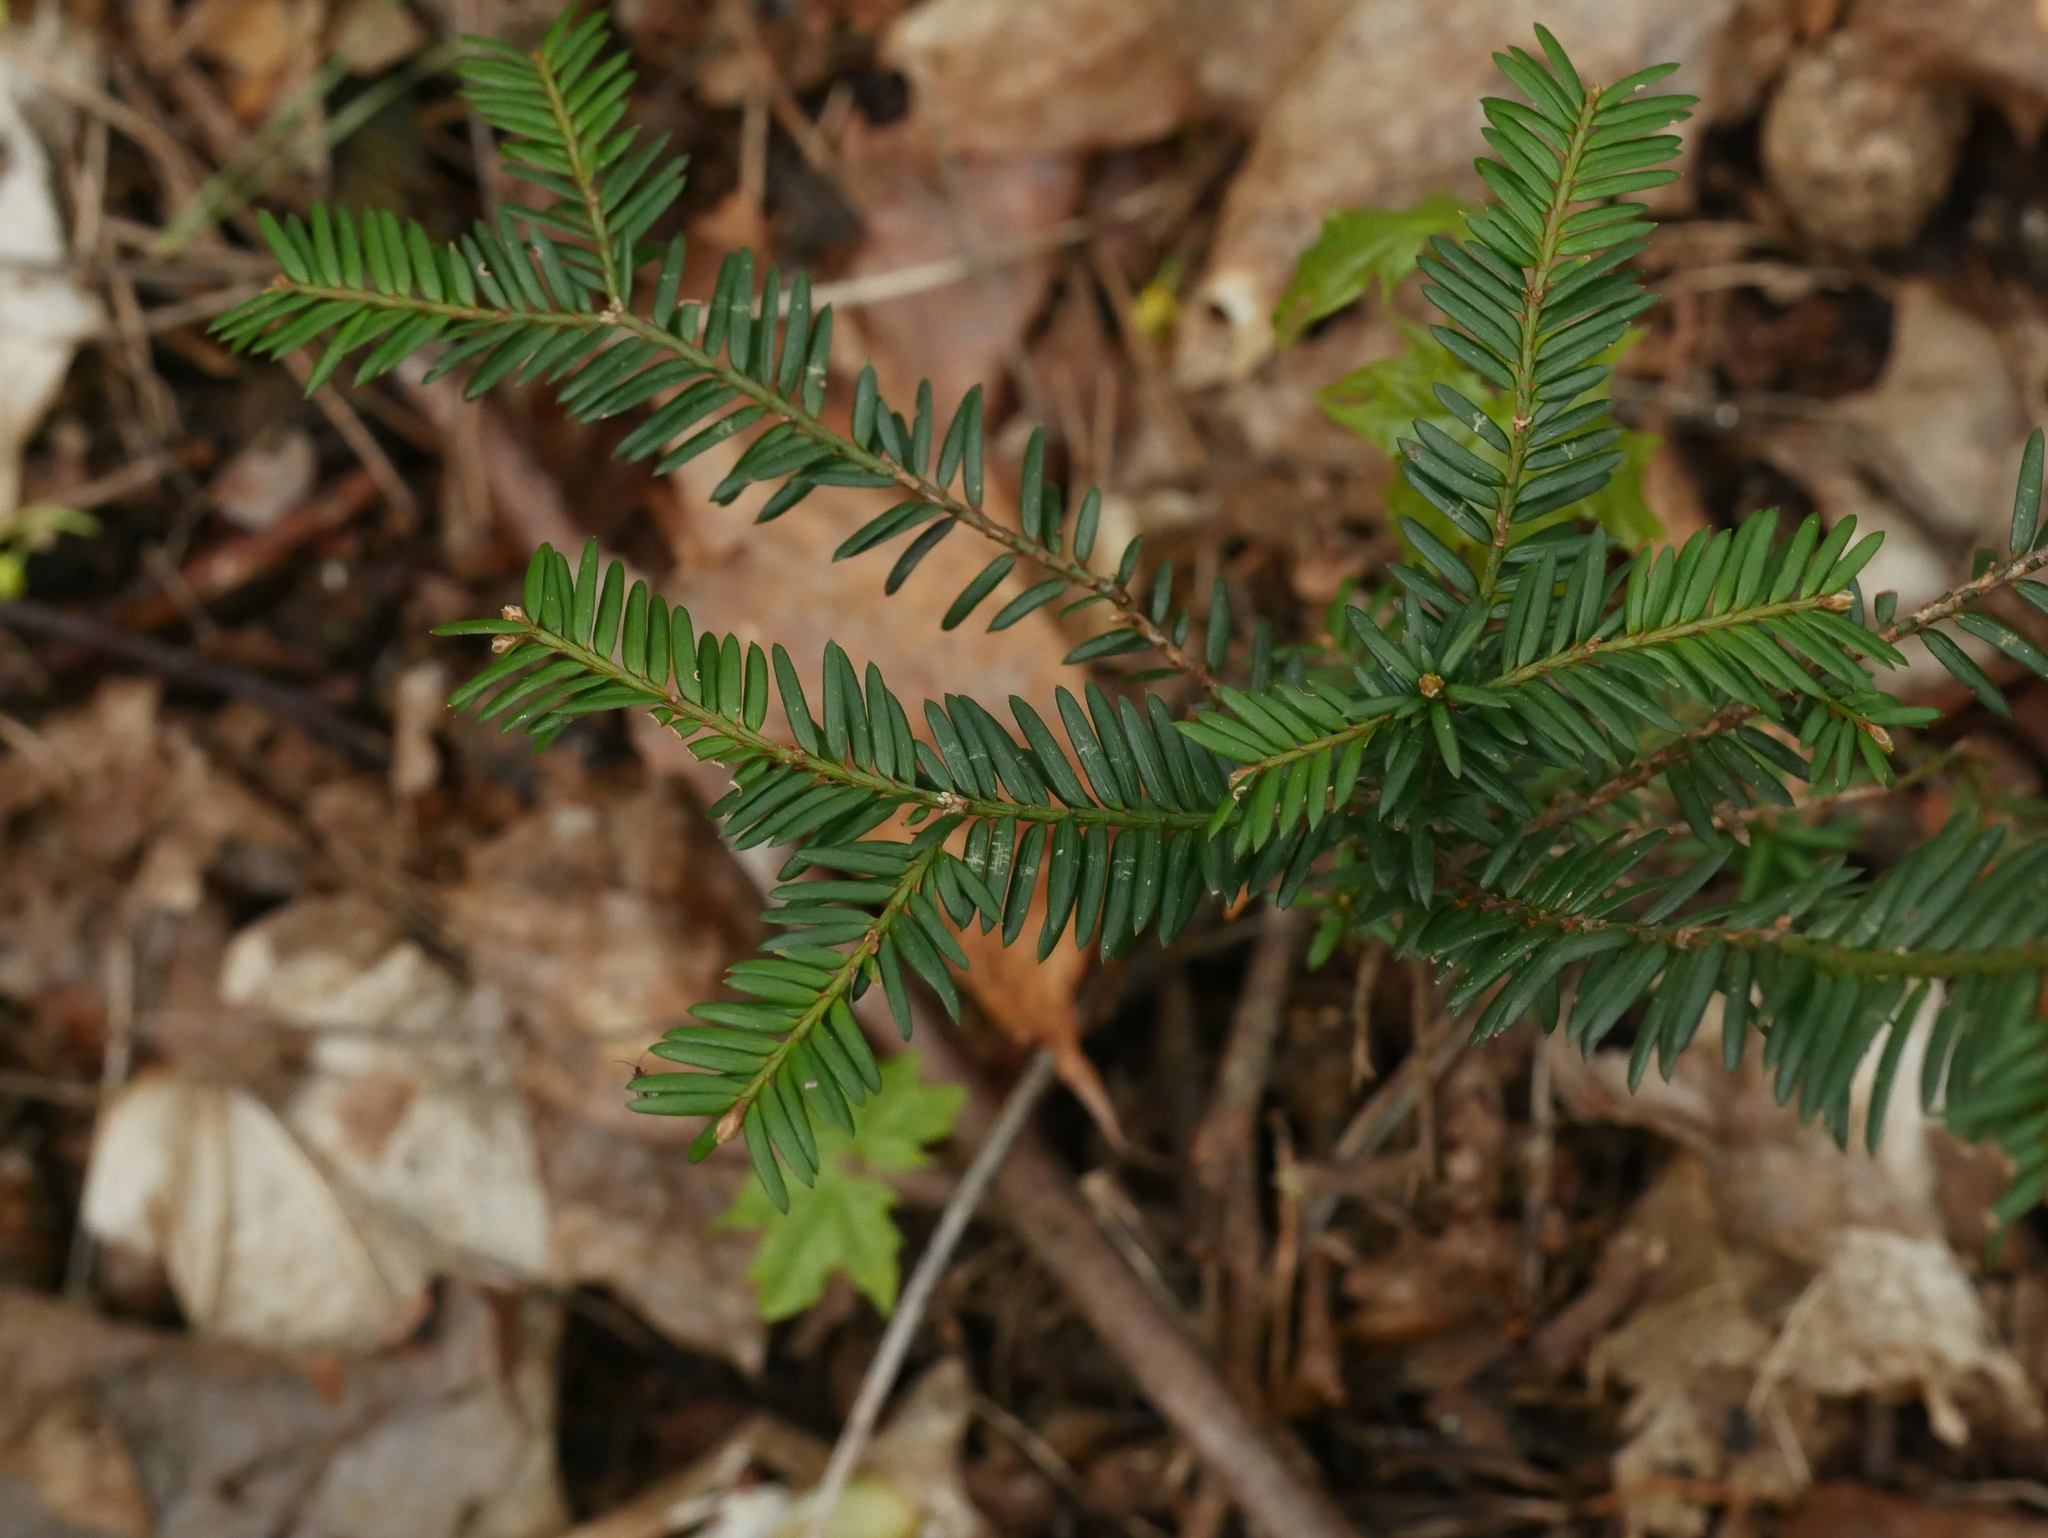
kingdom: Plantae
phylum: Tracheophyta
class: Pinopsida
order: Pinales
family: Taxaceae
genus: Taxus
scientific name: Taxus baccata
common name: Yew
